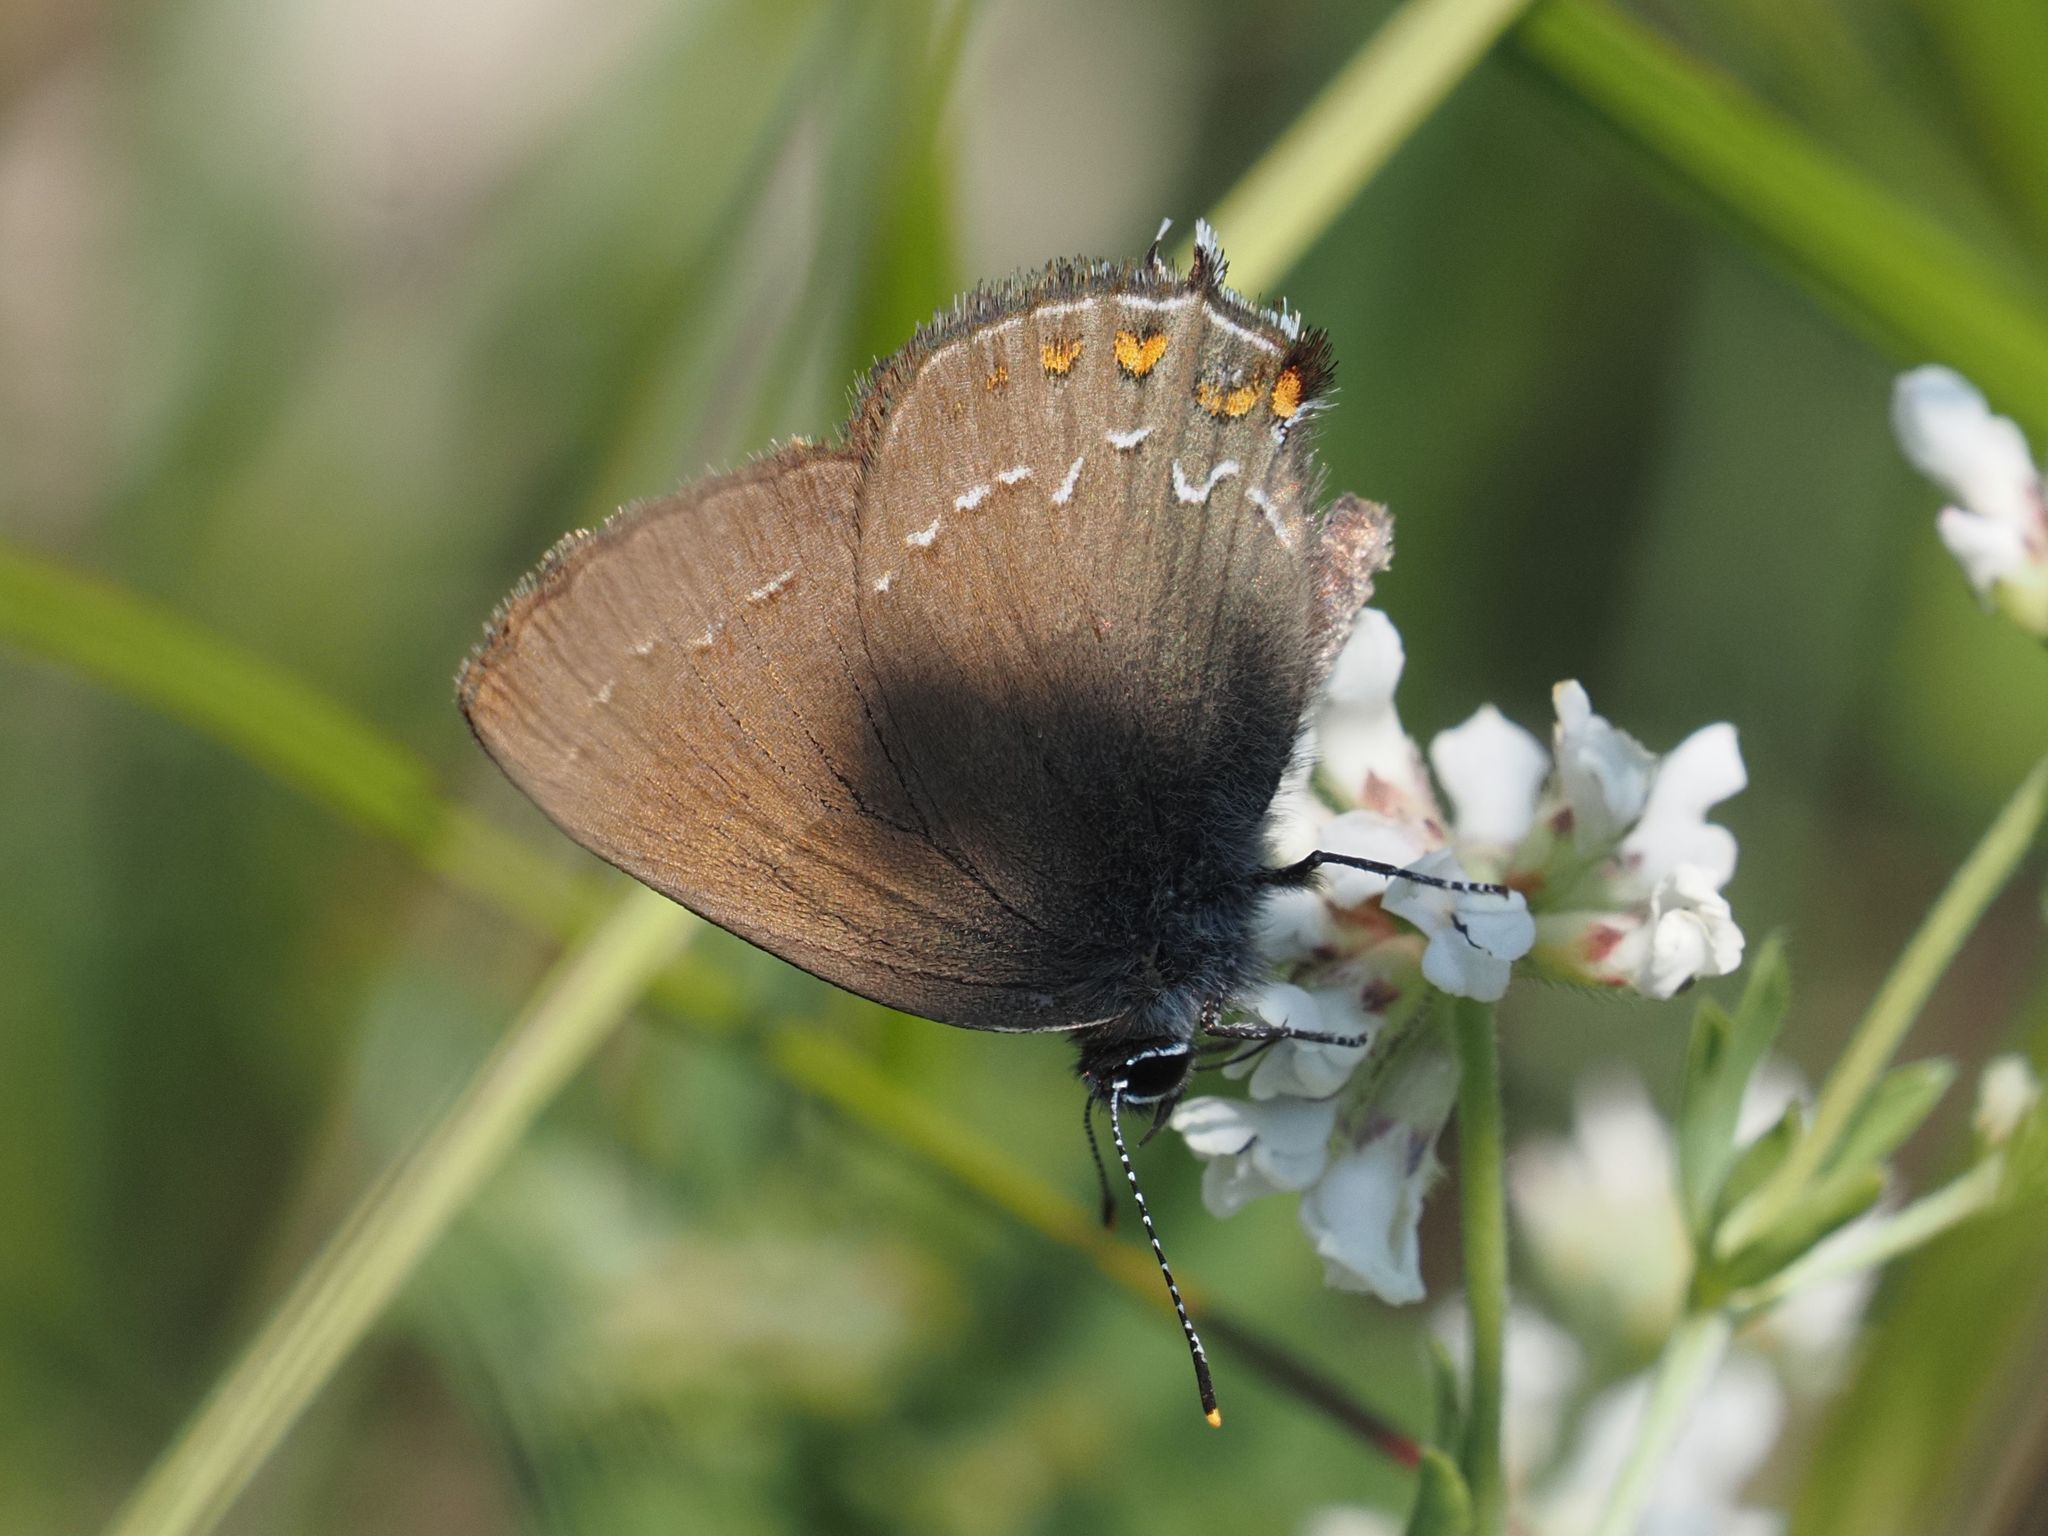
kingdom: Animalia
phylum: Arthropoda
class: Insecta
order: Lepidoptera
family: Lycaenidae
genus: Nordmannia
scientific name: Nordmannia ilicis
